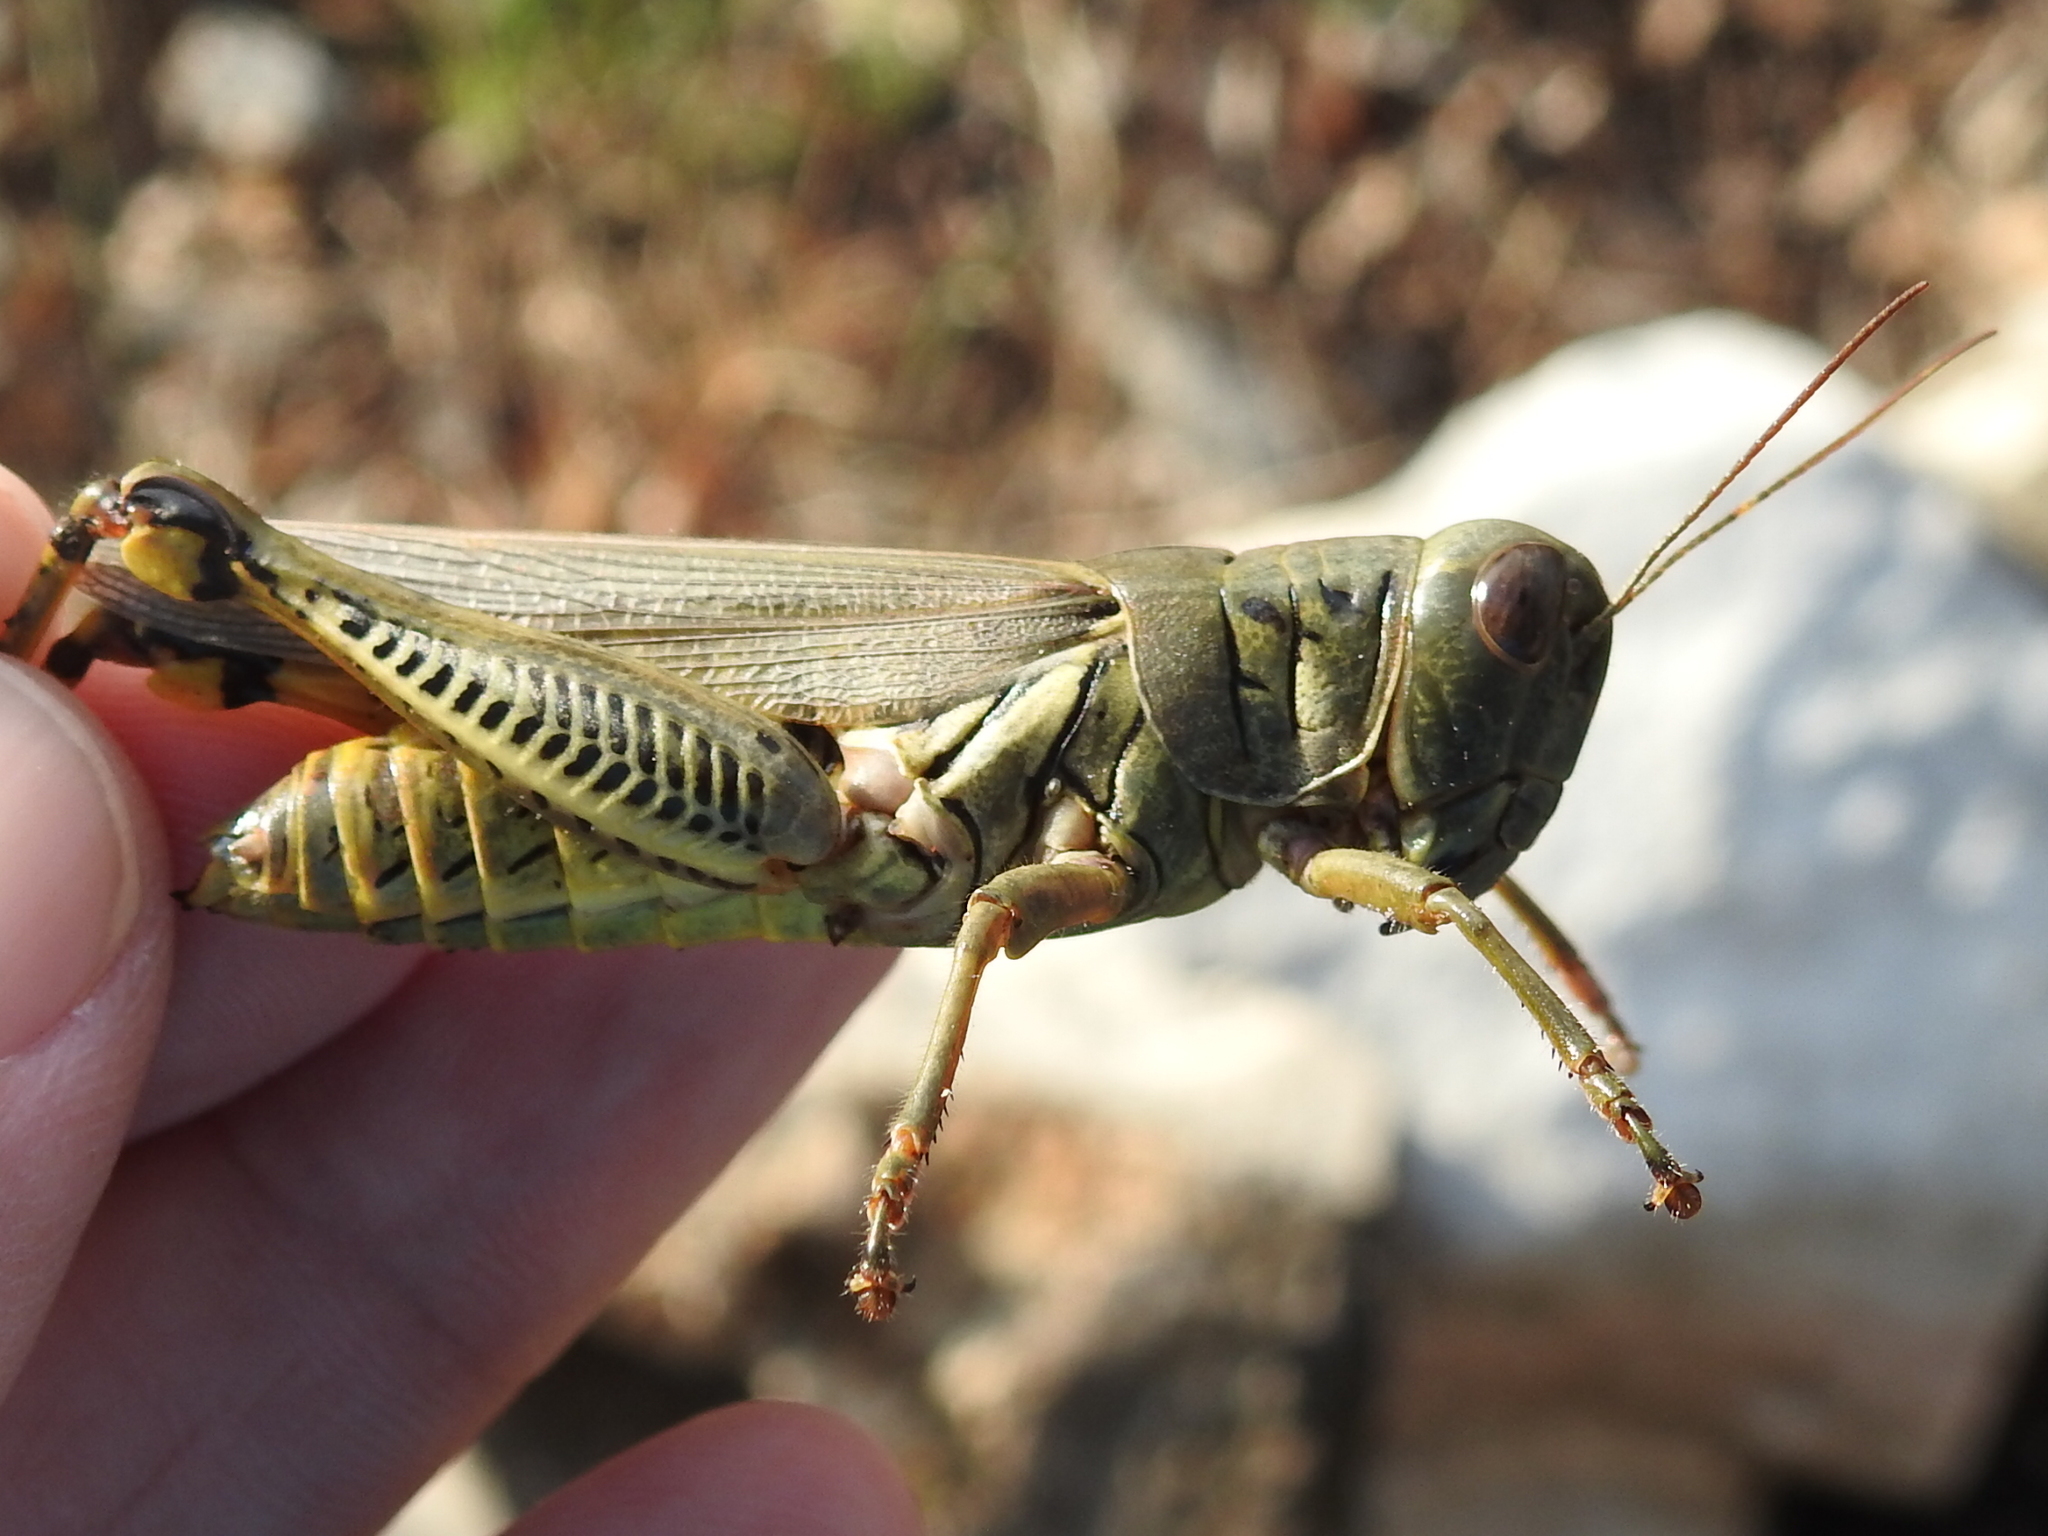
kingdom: Animalia
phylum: Arthropoda
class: Insecta
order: Orthoptera
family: Acrididae
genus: Melanoplus
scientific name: Melanoplus differentialis
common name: Differential grasshopper
